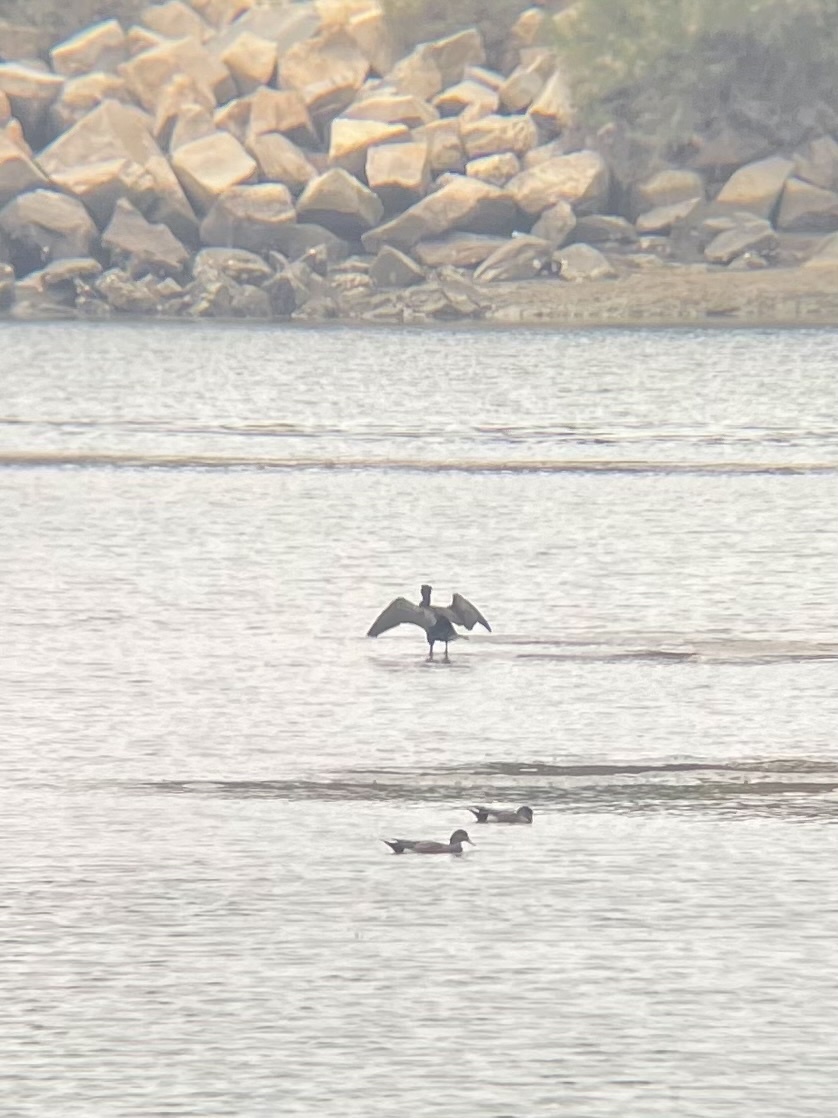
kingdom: Animalia
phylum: Chordata
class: Aves
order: Suliformes
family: Phalacrocoracidae
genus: Phalacrocorax
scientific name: Phalacrocorax auritus
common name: Double-crested cormorant
